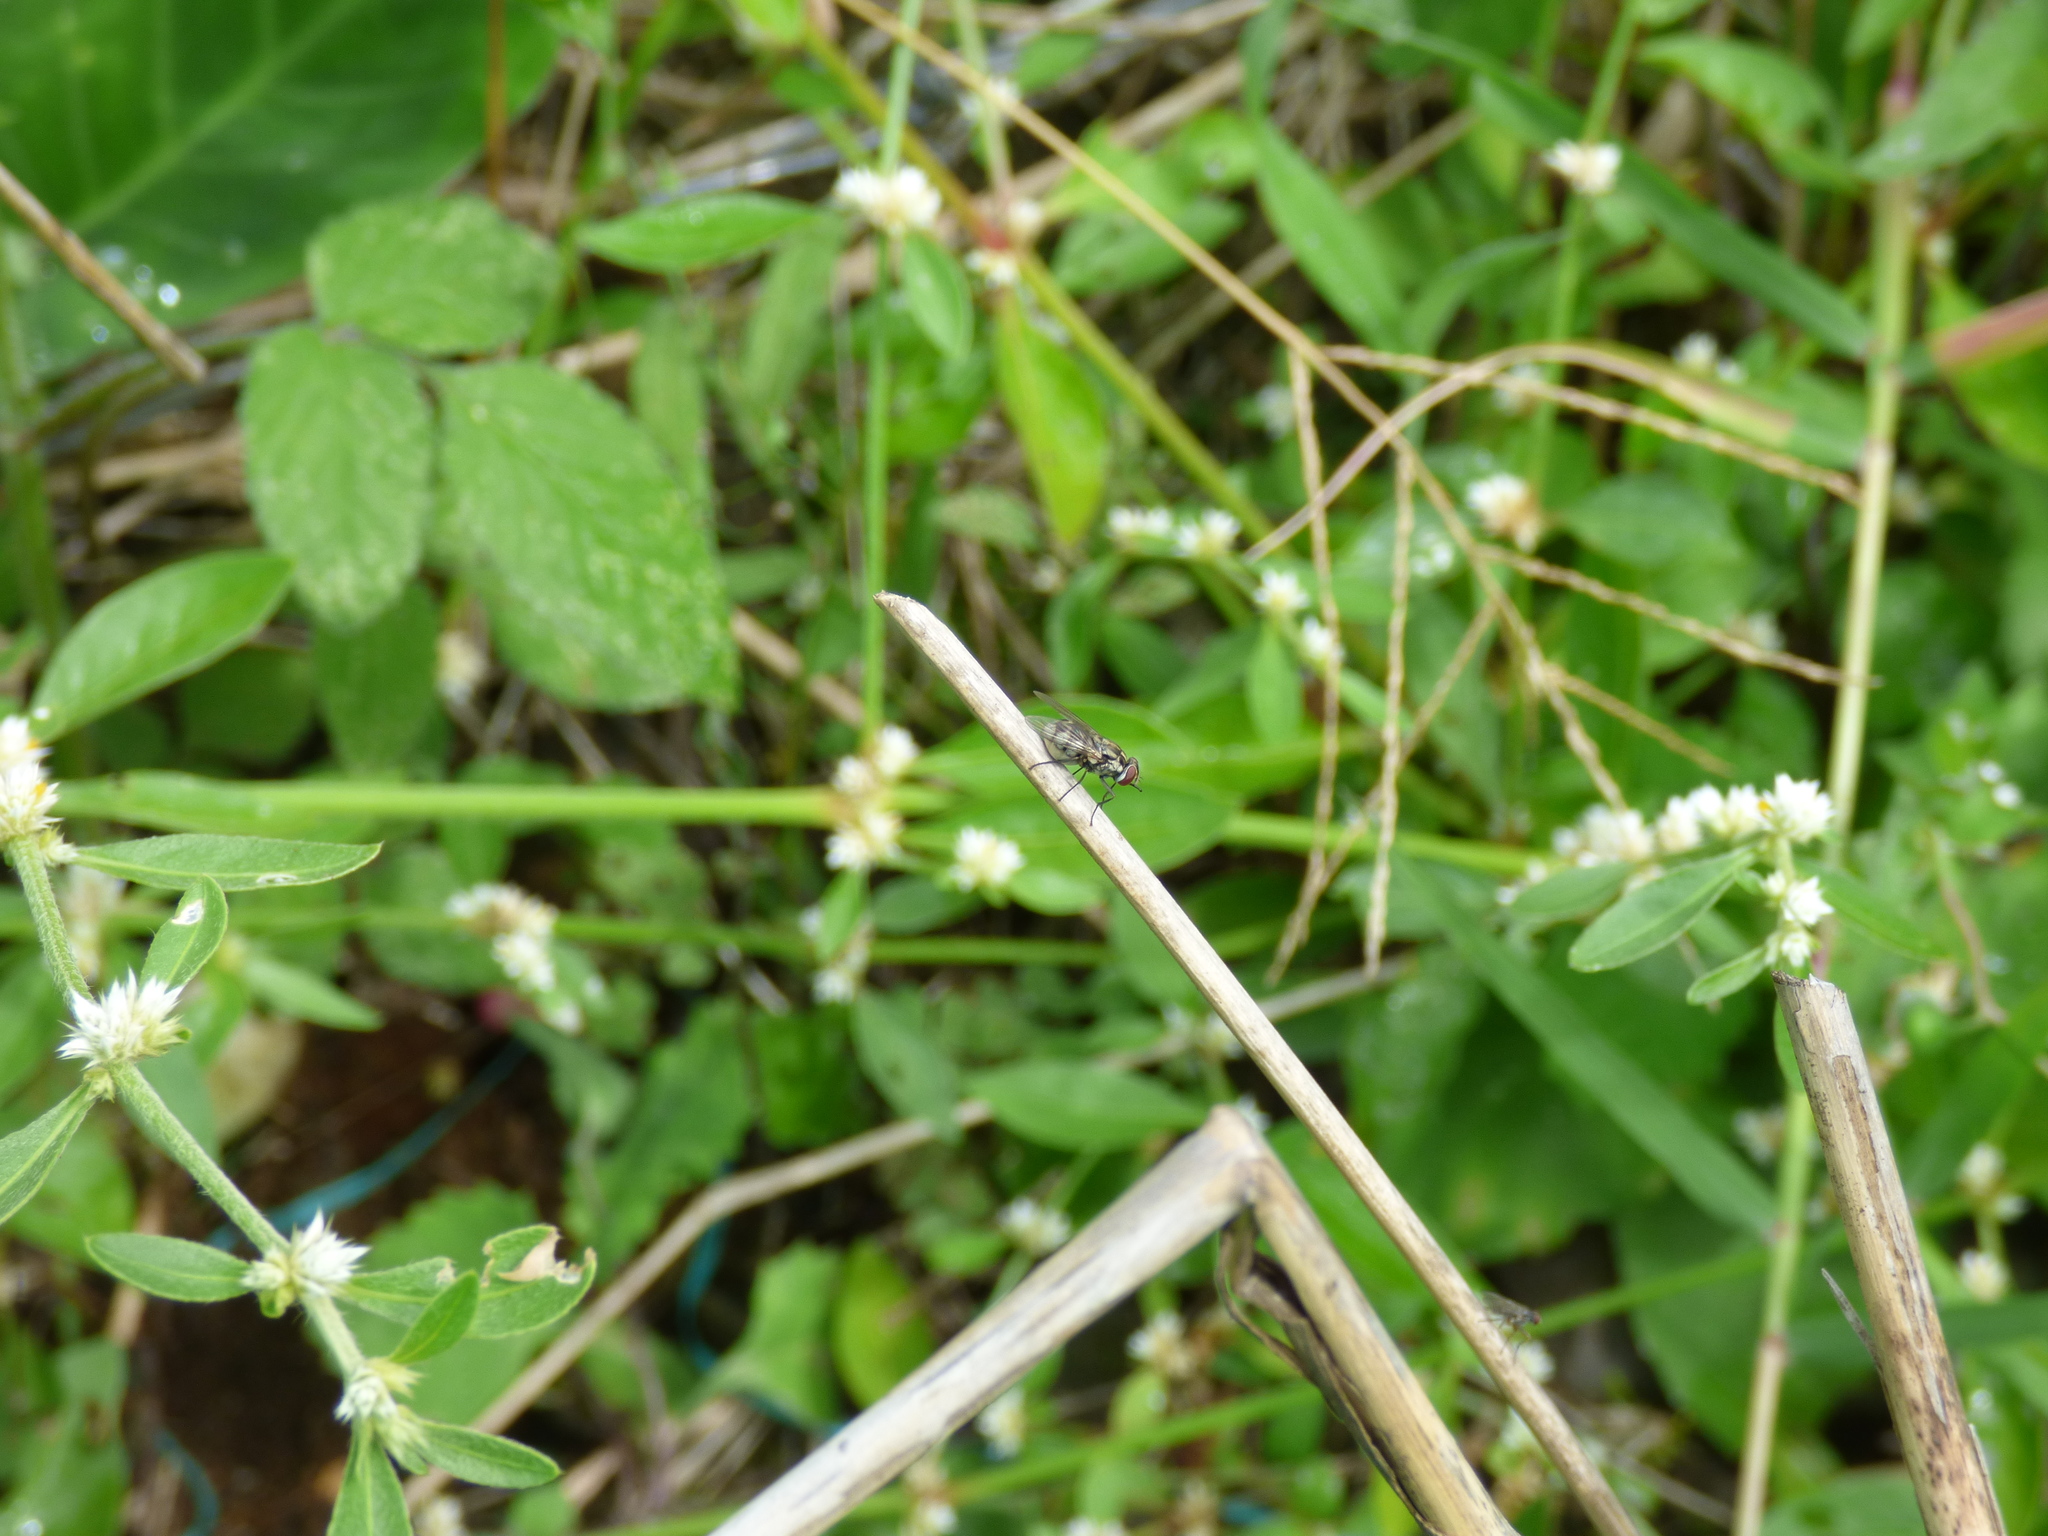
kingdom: Animalia
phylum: Arthropoda
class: Insecta
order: Diptera
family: Muscidae
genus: Stomoxys
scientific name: Stomoxys calcitrans
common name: Stable fly
